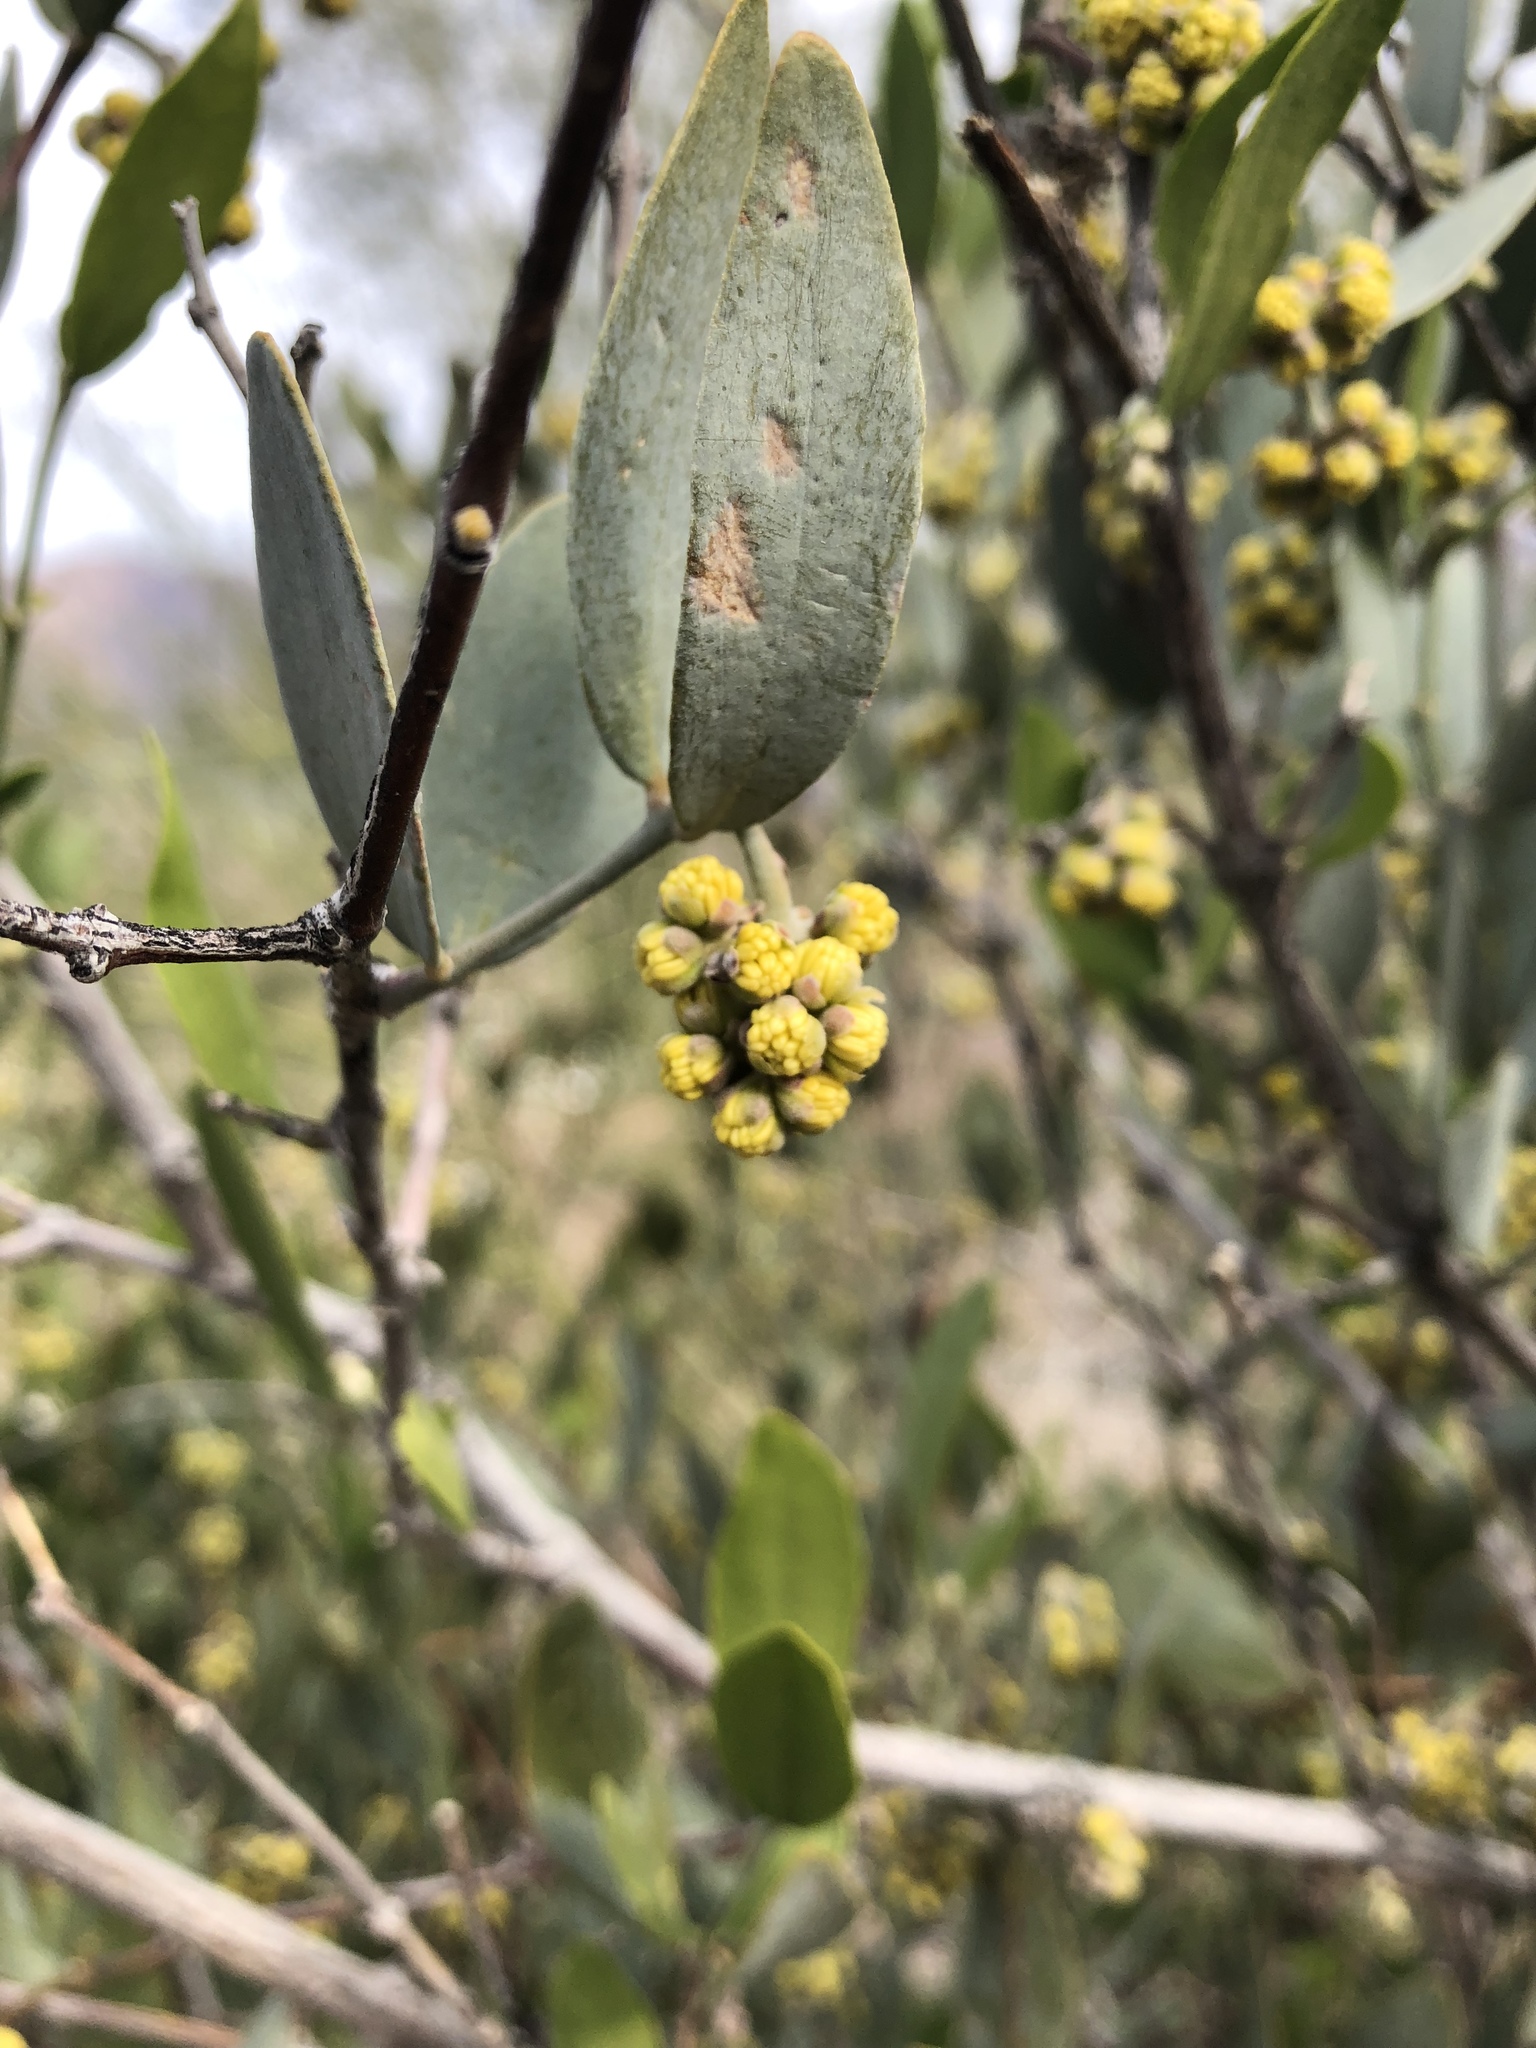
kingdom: Plantae
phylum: Tracheophyta
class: Magnoliopsida
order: Caryophyllales
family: Simmondsiaceae
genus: Simmondsia
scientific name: Simmondsia chinensis
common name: Jojoba
